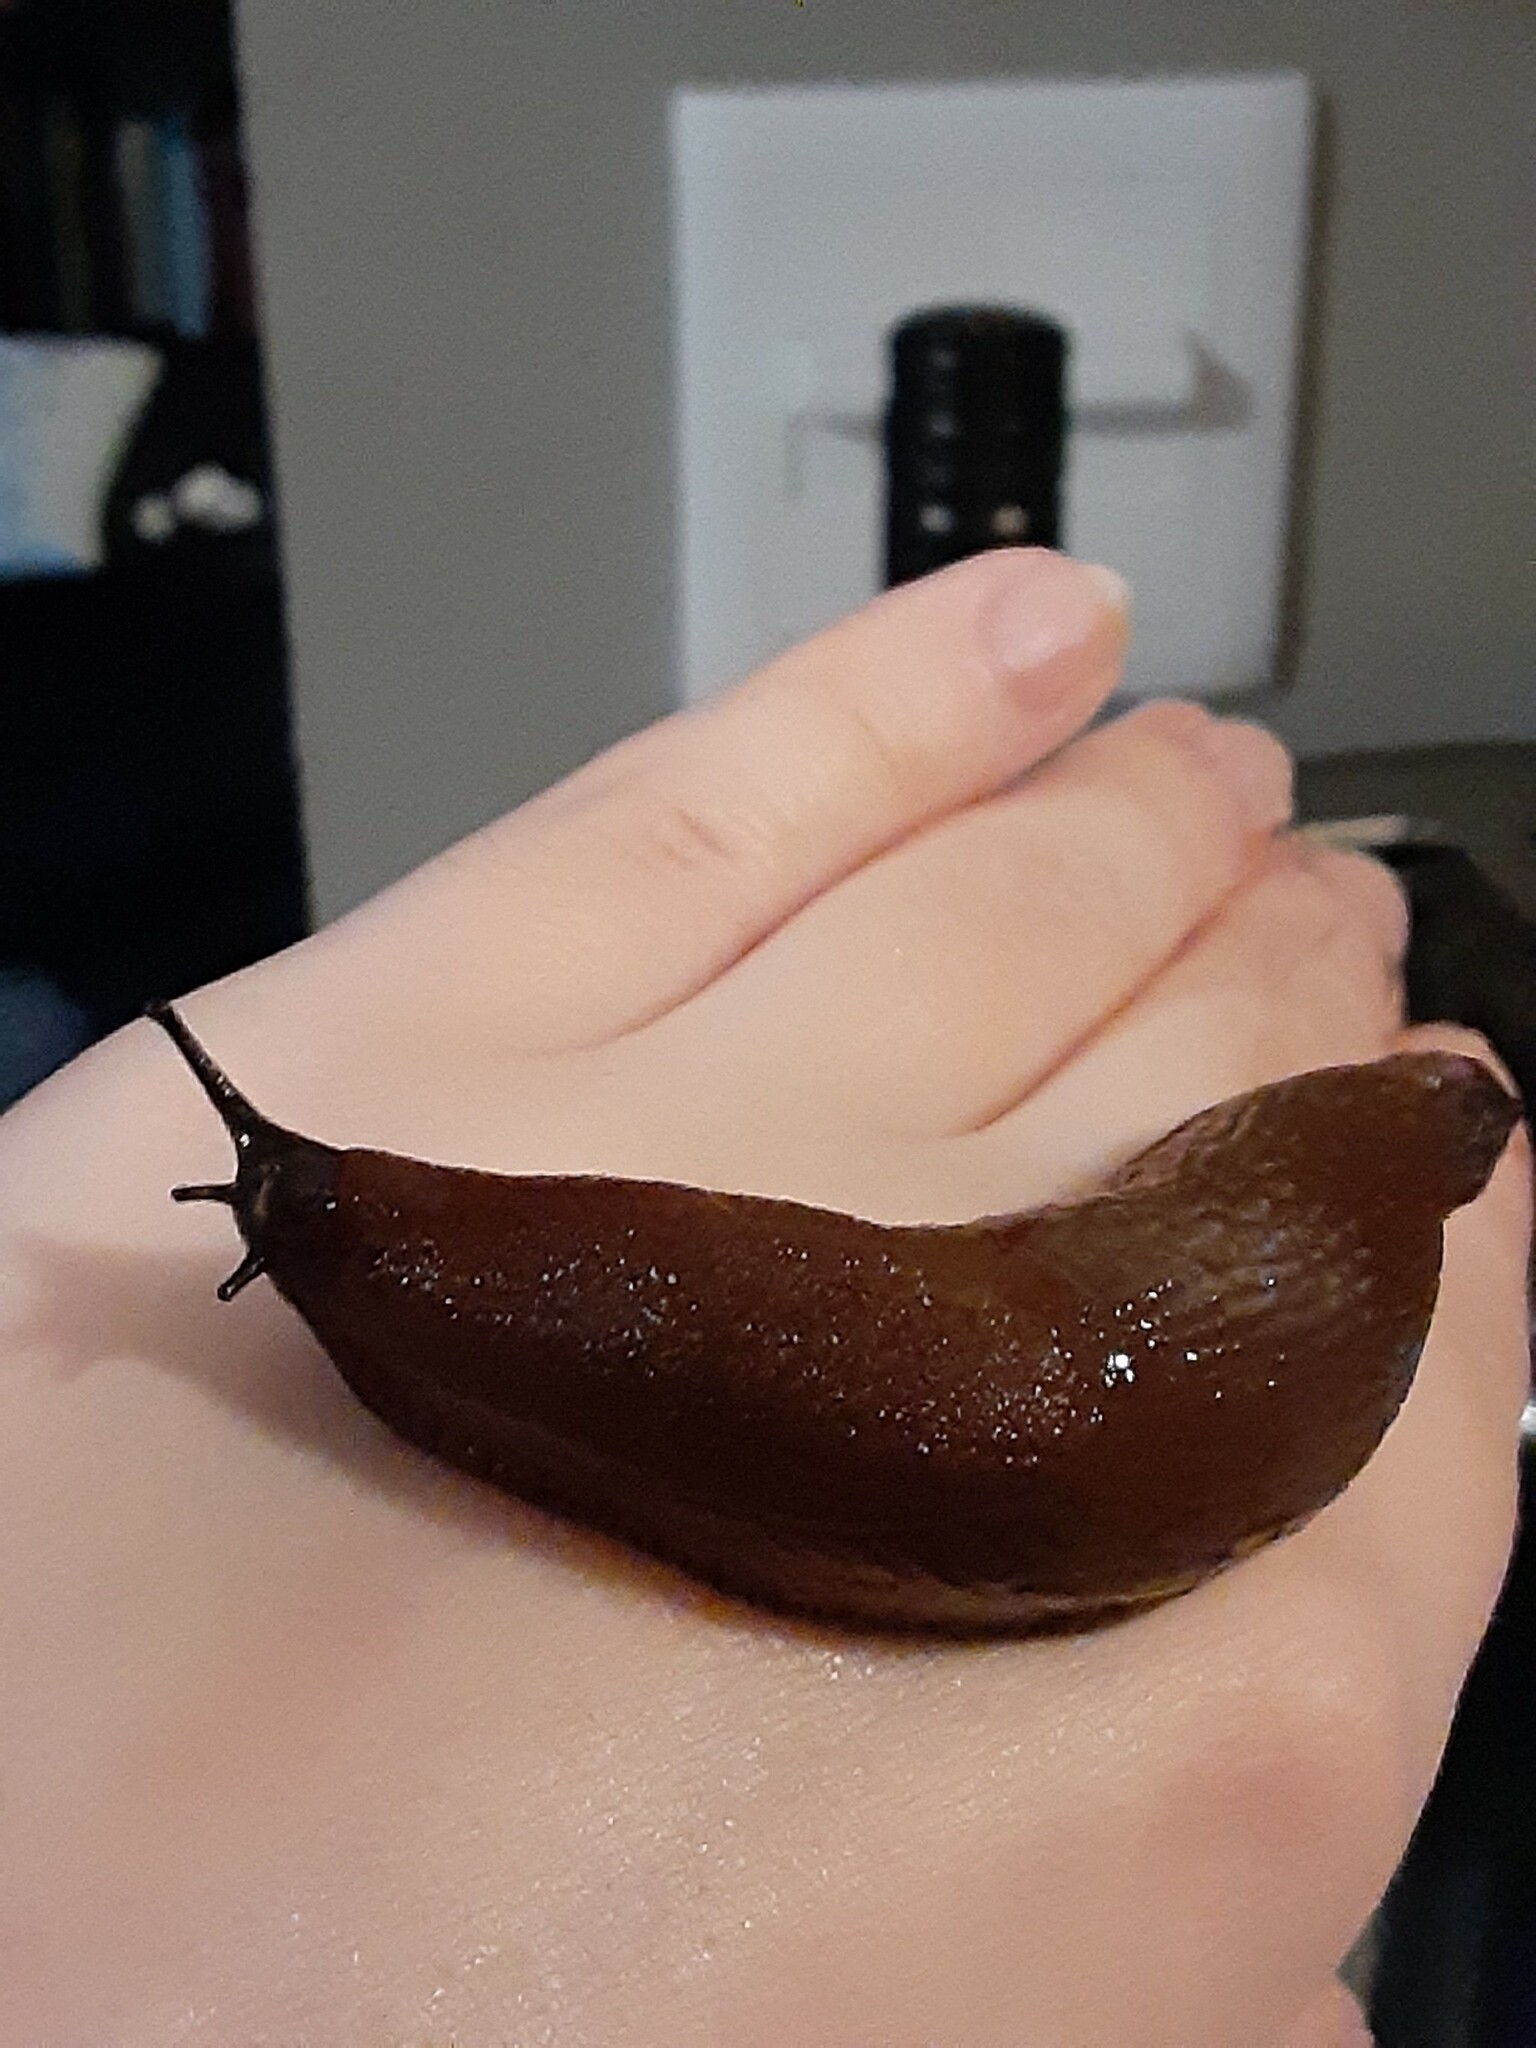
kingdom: Animalia
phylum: Mollusca
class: Gastropoda
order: Stylommatophora
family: Arionidae
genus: Arion
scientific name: Arion rufus
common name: Chocolate arion
